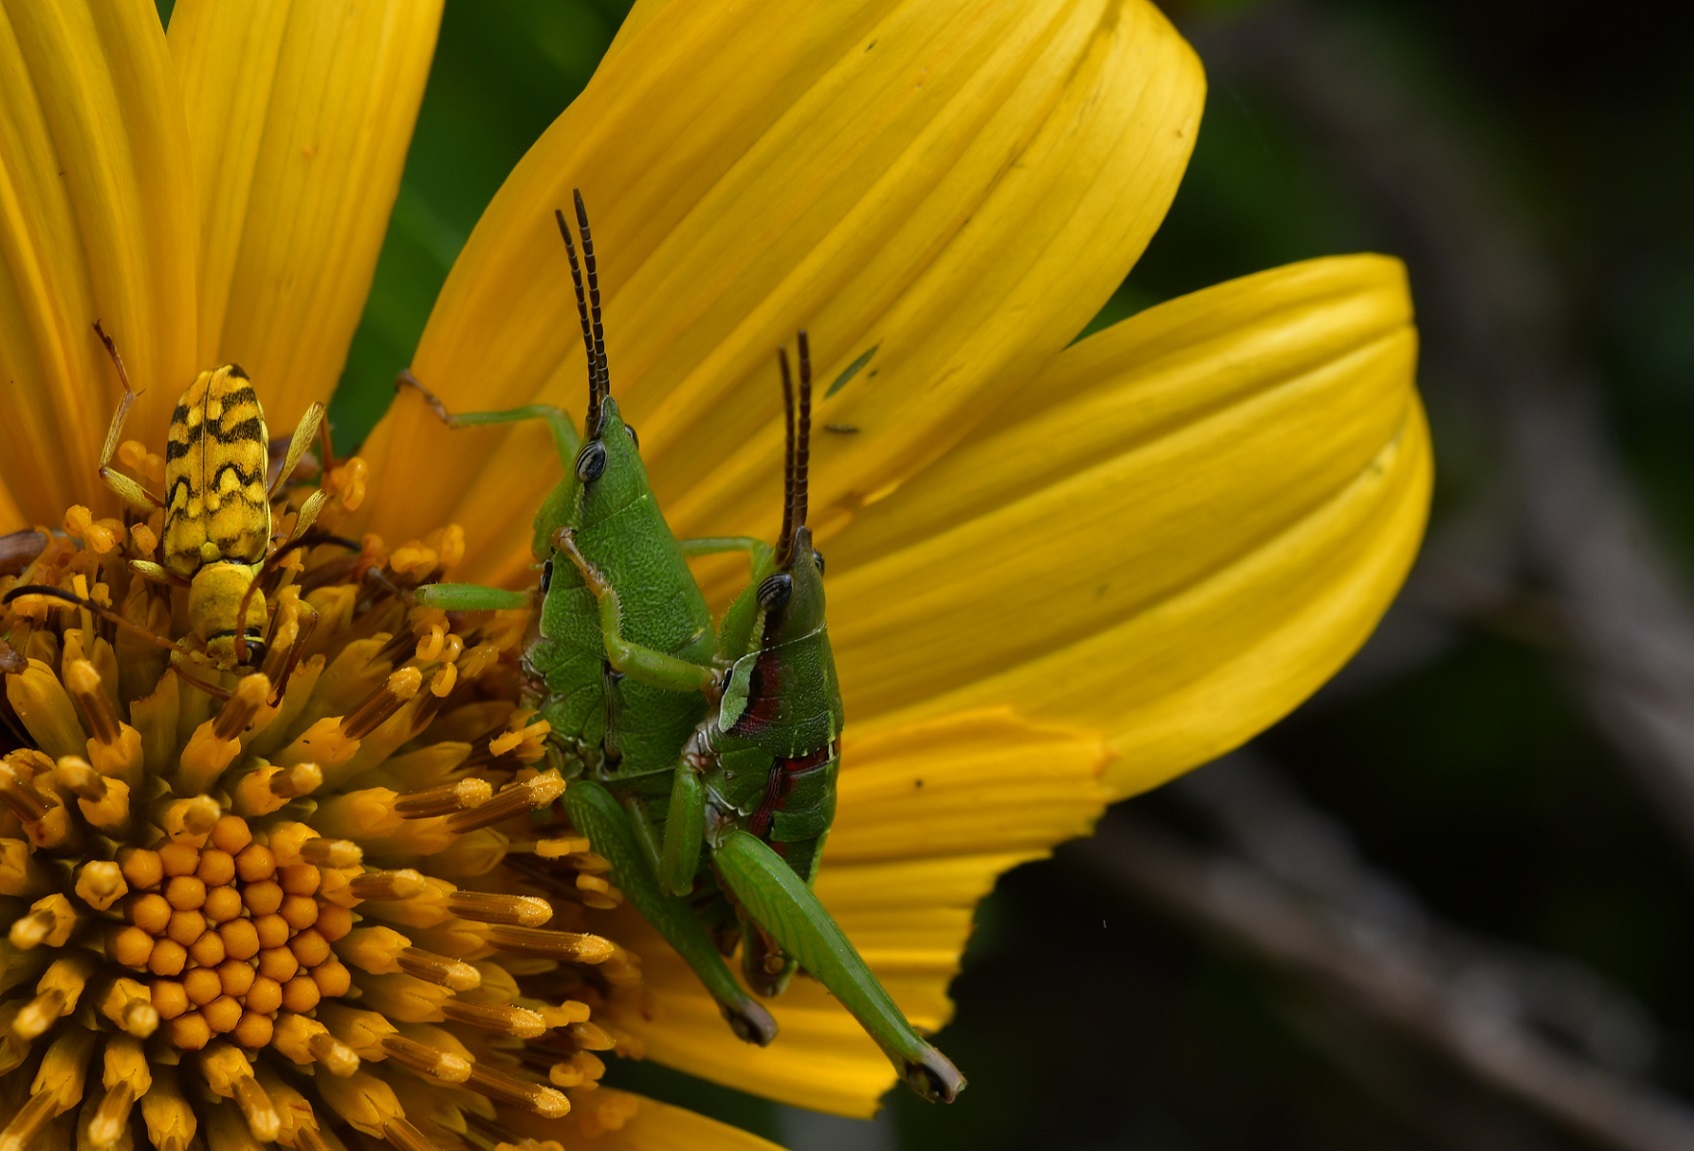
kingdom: Animalia
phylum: Arthropoda
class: Insecta
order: Orthoptera
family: Pyrgomorphidae
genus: Sphenarium
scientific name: Sphenarium histrio
